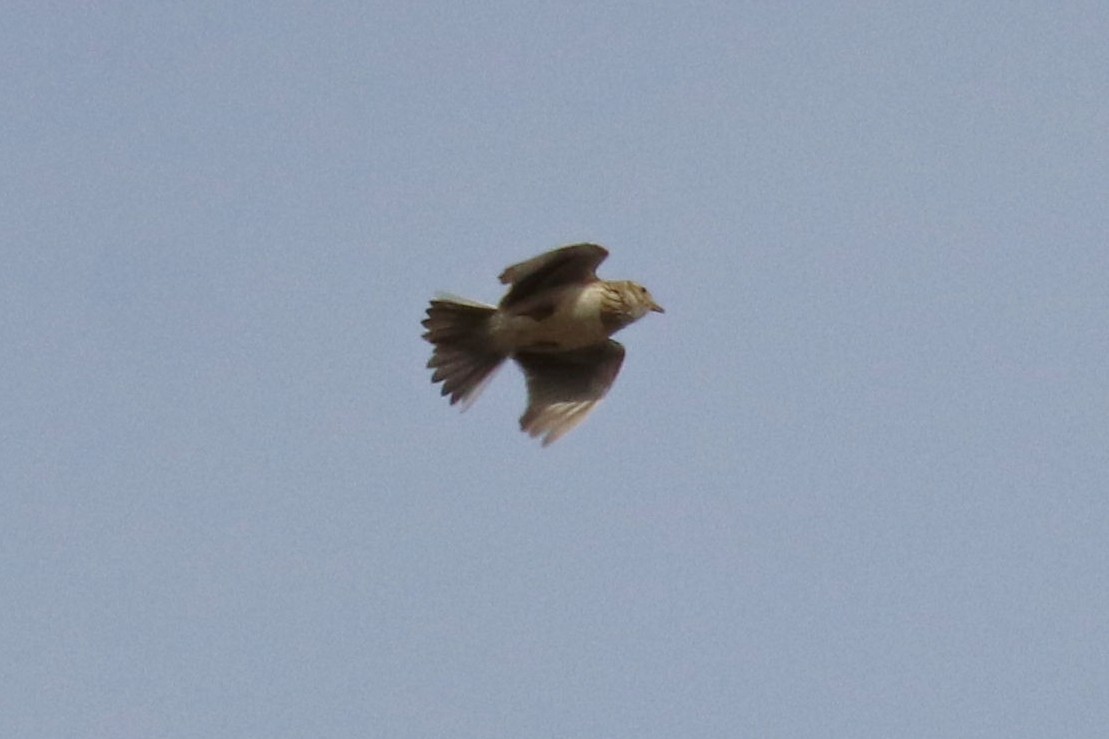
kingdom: Animalia
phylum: Chordata
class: Aves
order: Passeriformes
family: Alaudidae
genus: Alauda
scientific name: Alauda arvensis
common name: Eurasian skylark
